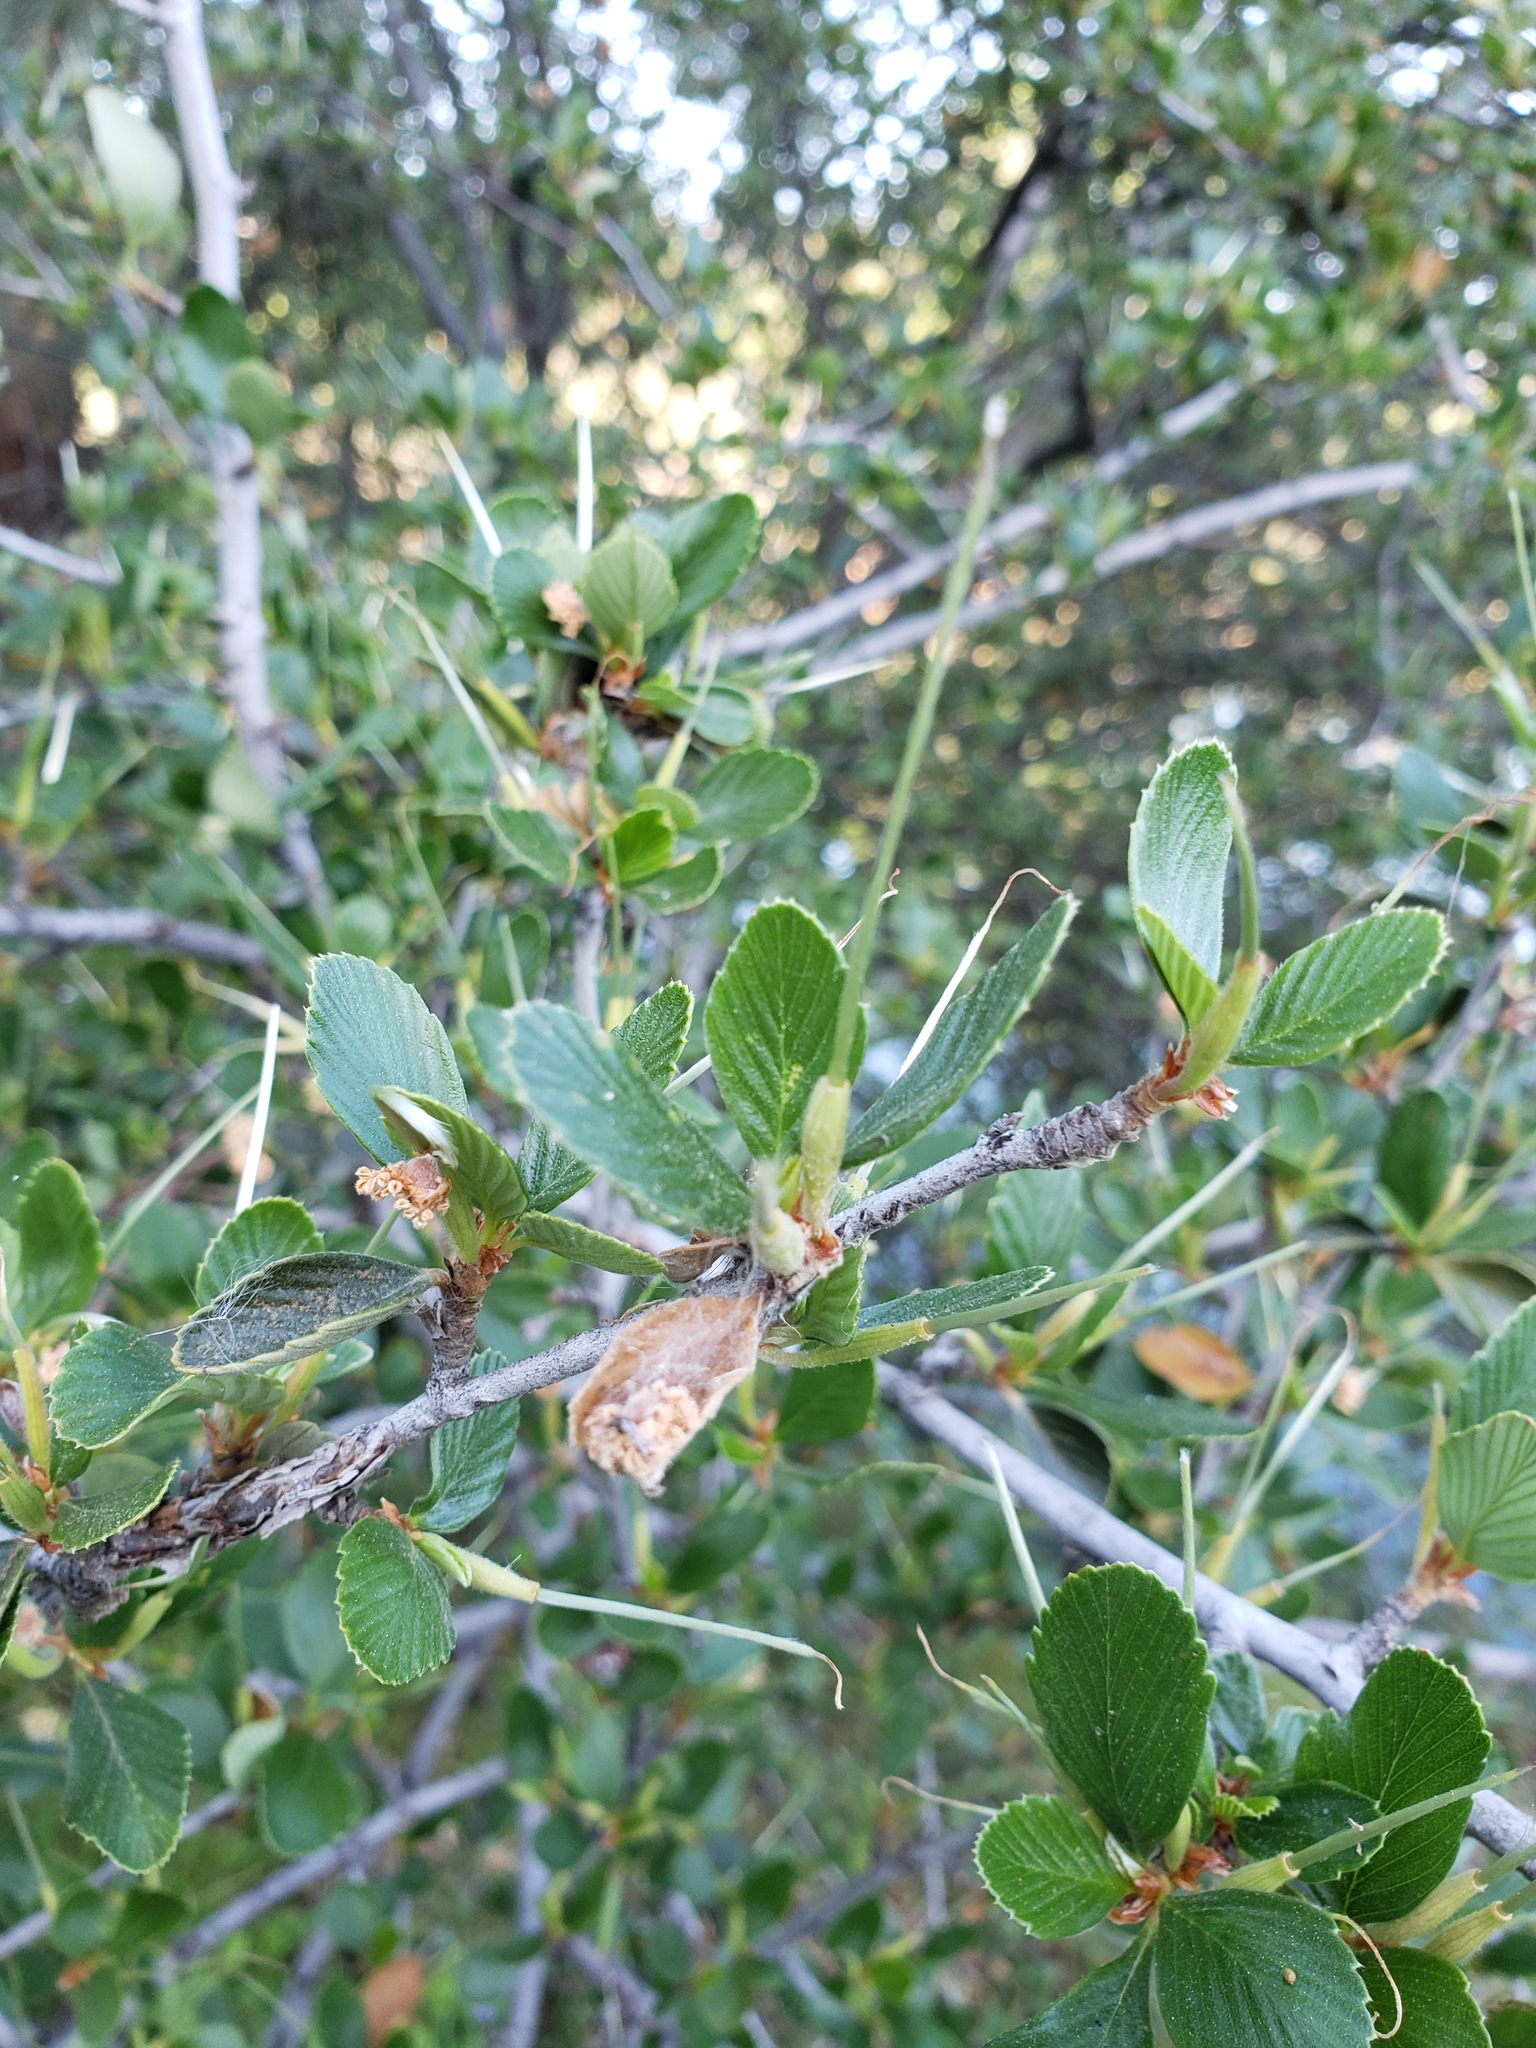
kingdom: Plantae
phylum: Tracheophyta
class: Magnoliopsida
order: Rosales
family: Rosaceae
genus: Cercocarpus
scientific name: Cercocarpus betuloides
